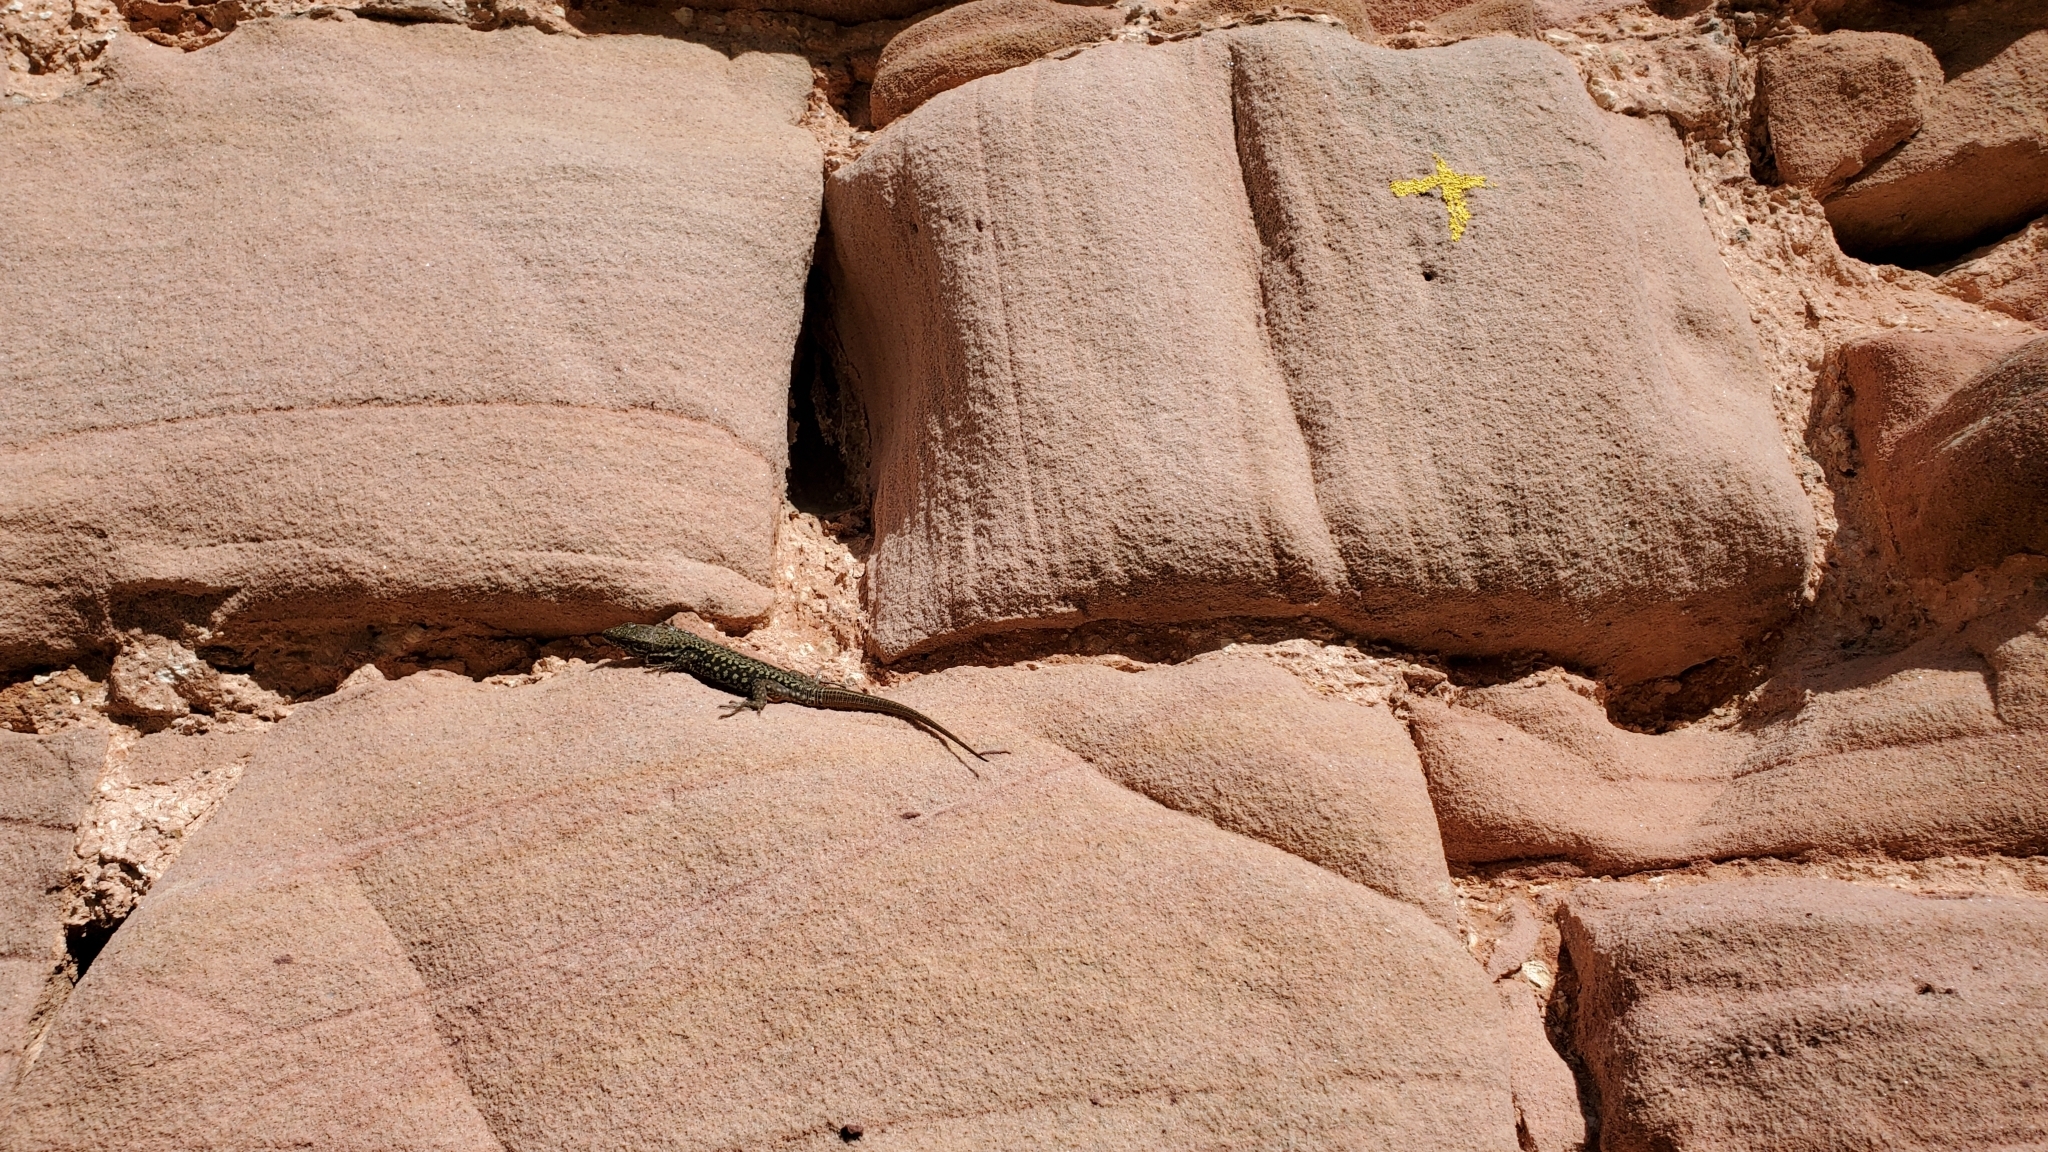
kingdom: Animalia
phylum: Chordata
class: Squamata
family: Lacertidae
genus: Podarcis
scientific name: Podarcis muralis
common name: Common wall lizard
